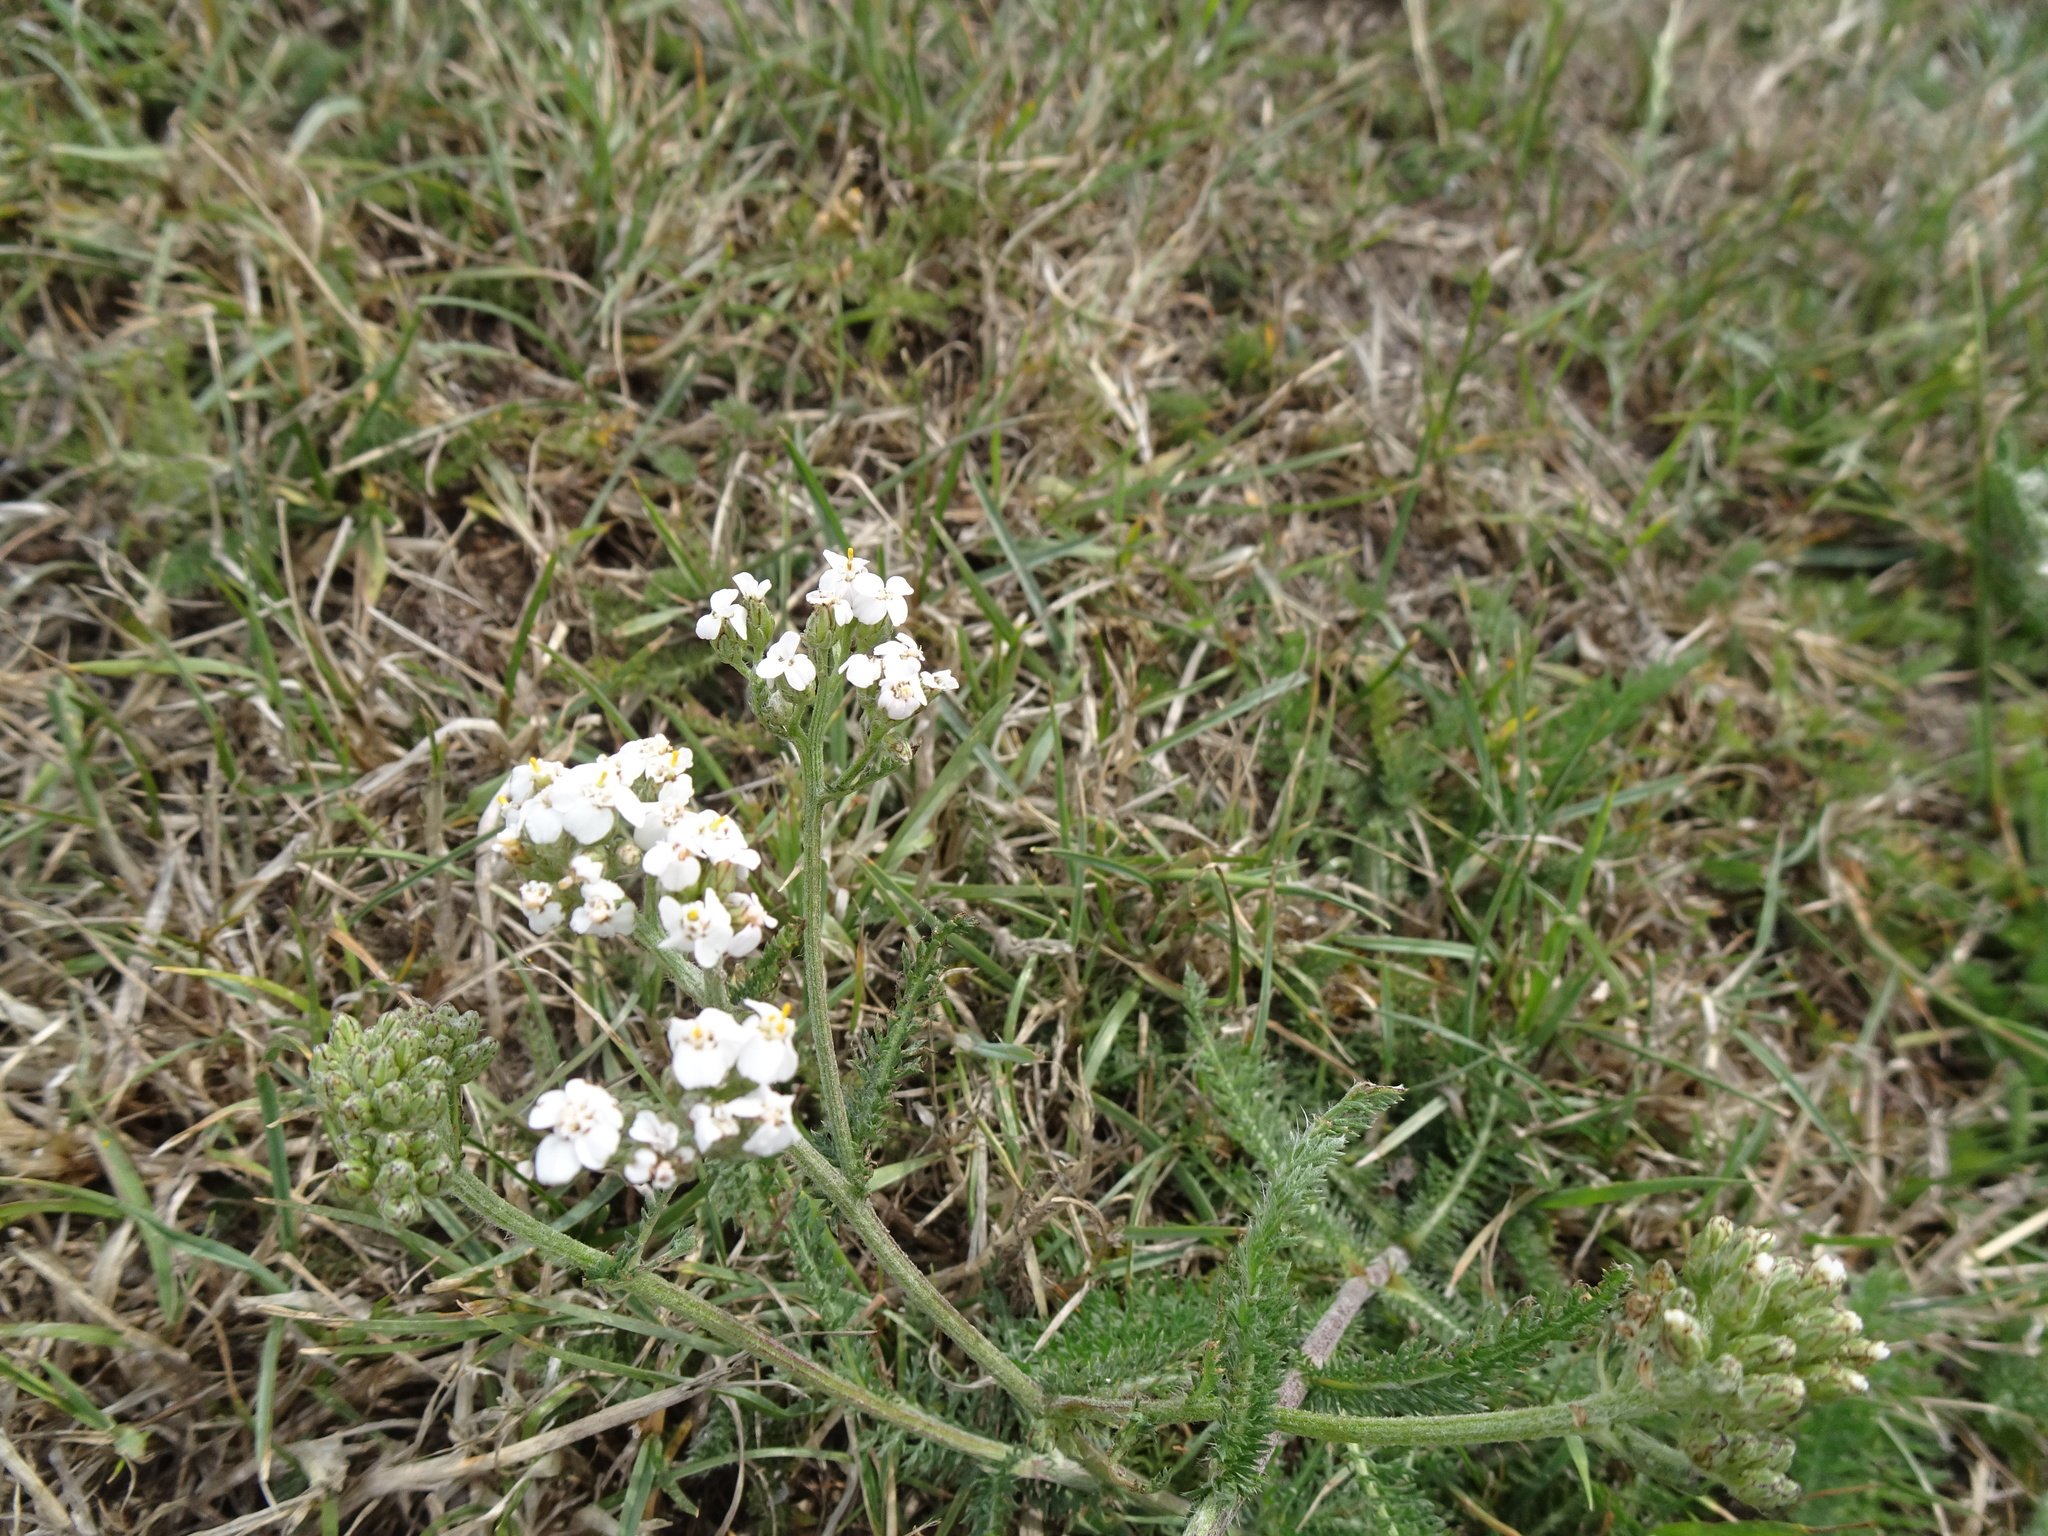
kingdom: Plantae
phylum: Tracheophyta
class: Magnoliopsida
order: Asterales
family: Asteraceae
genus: Achillea
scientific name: Achillea millefolium
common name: Yarrow
